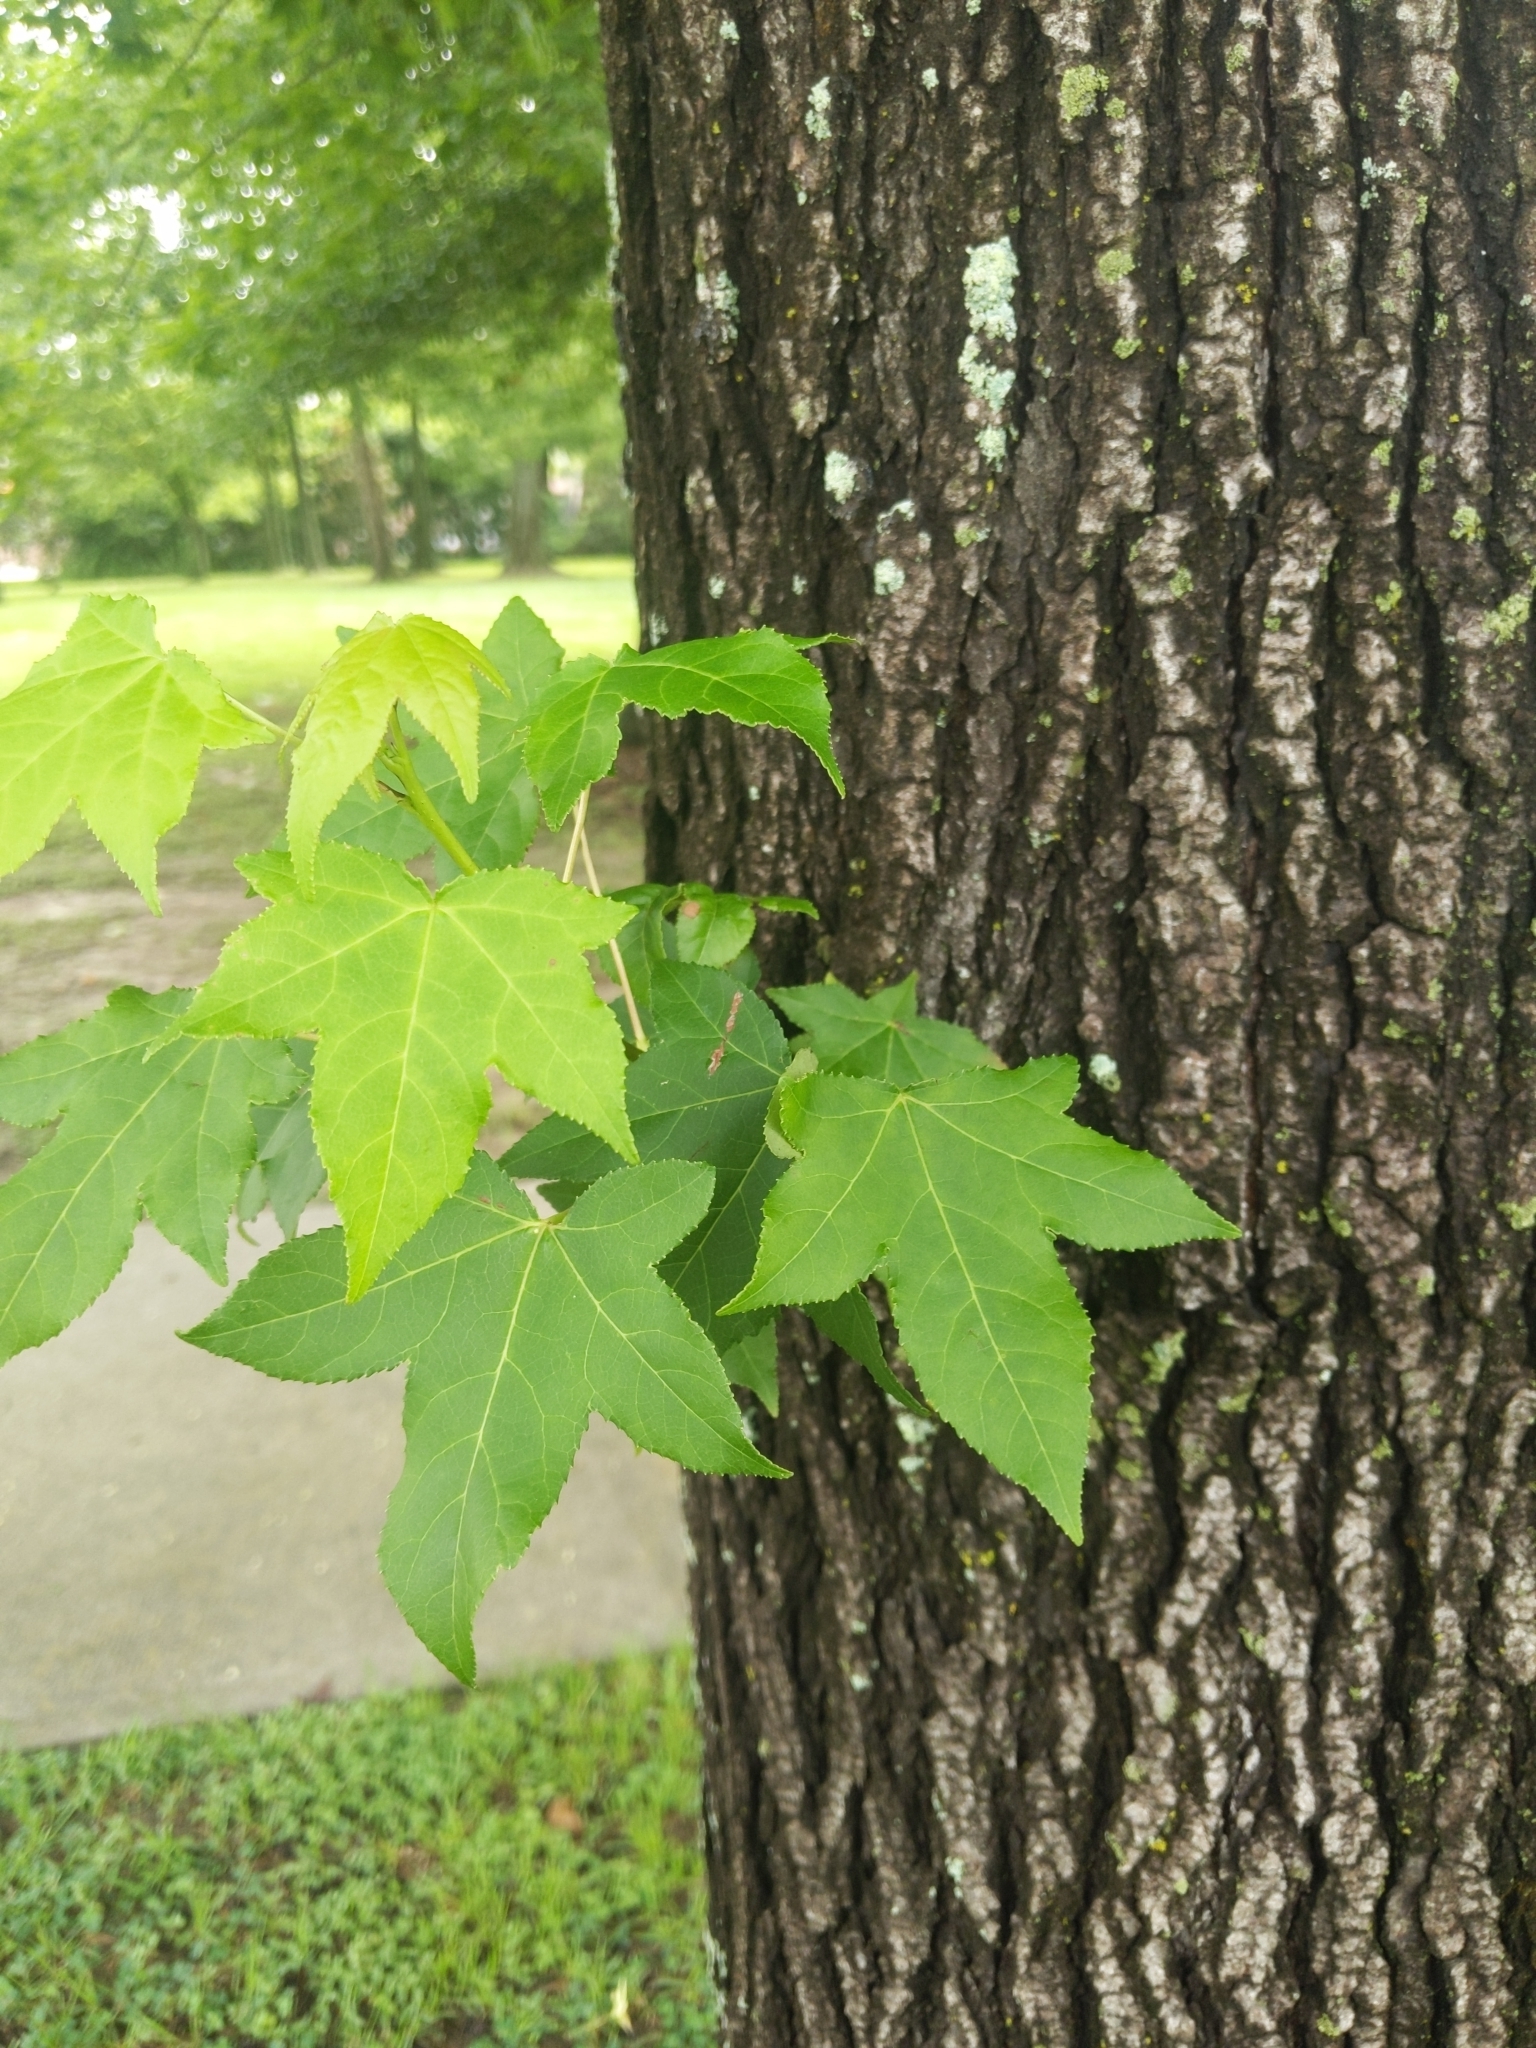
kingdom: Plantae
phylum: Tracheophyta
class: Magnoliopsida
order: Saxifragales
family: Altingiaceae
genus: Liquidambar
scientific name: Liquidambar styraciflua
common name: Sweet gum
